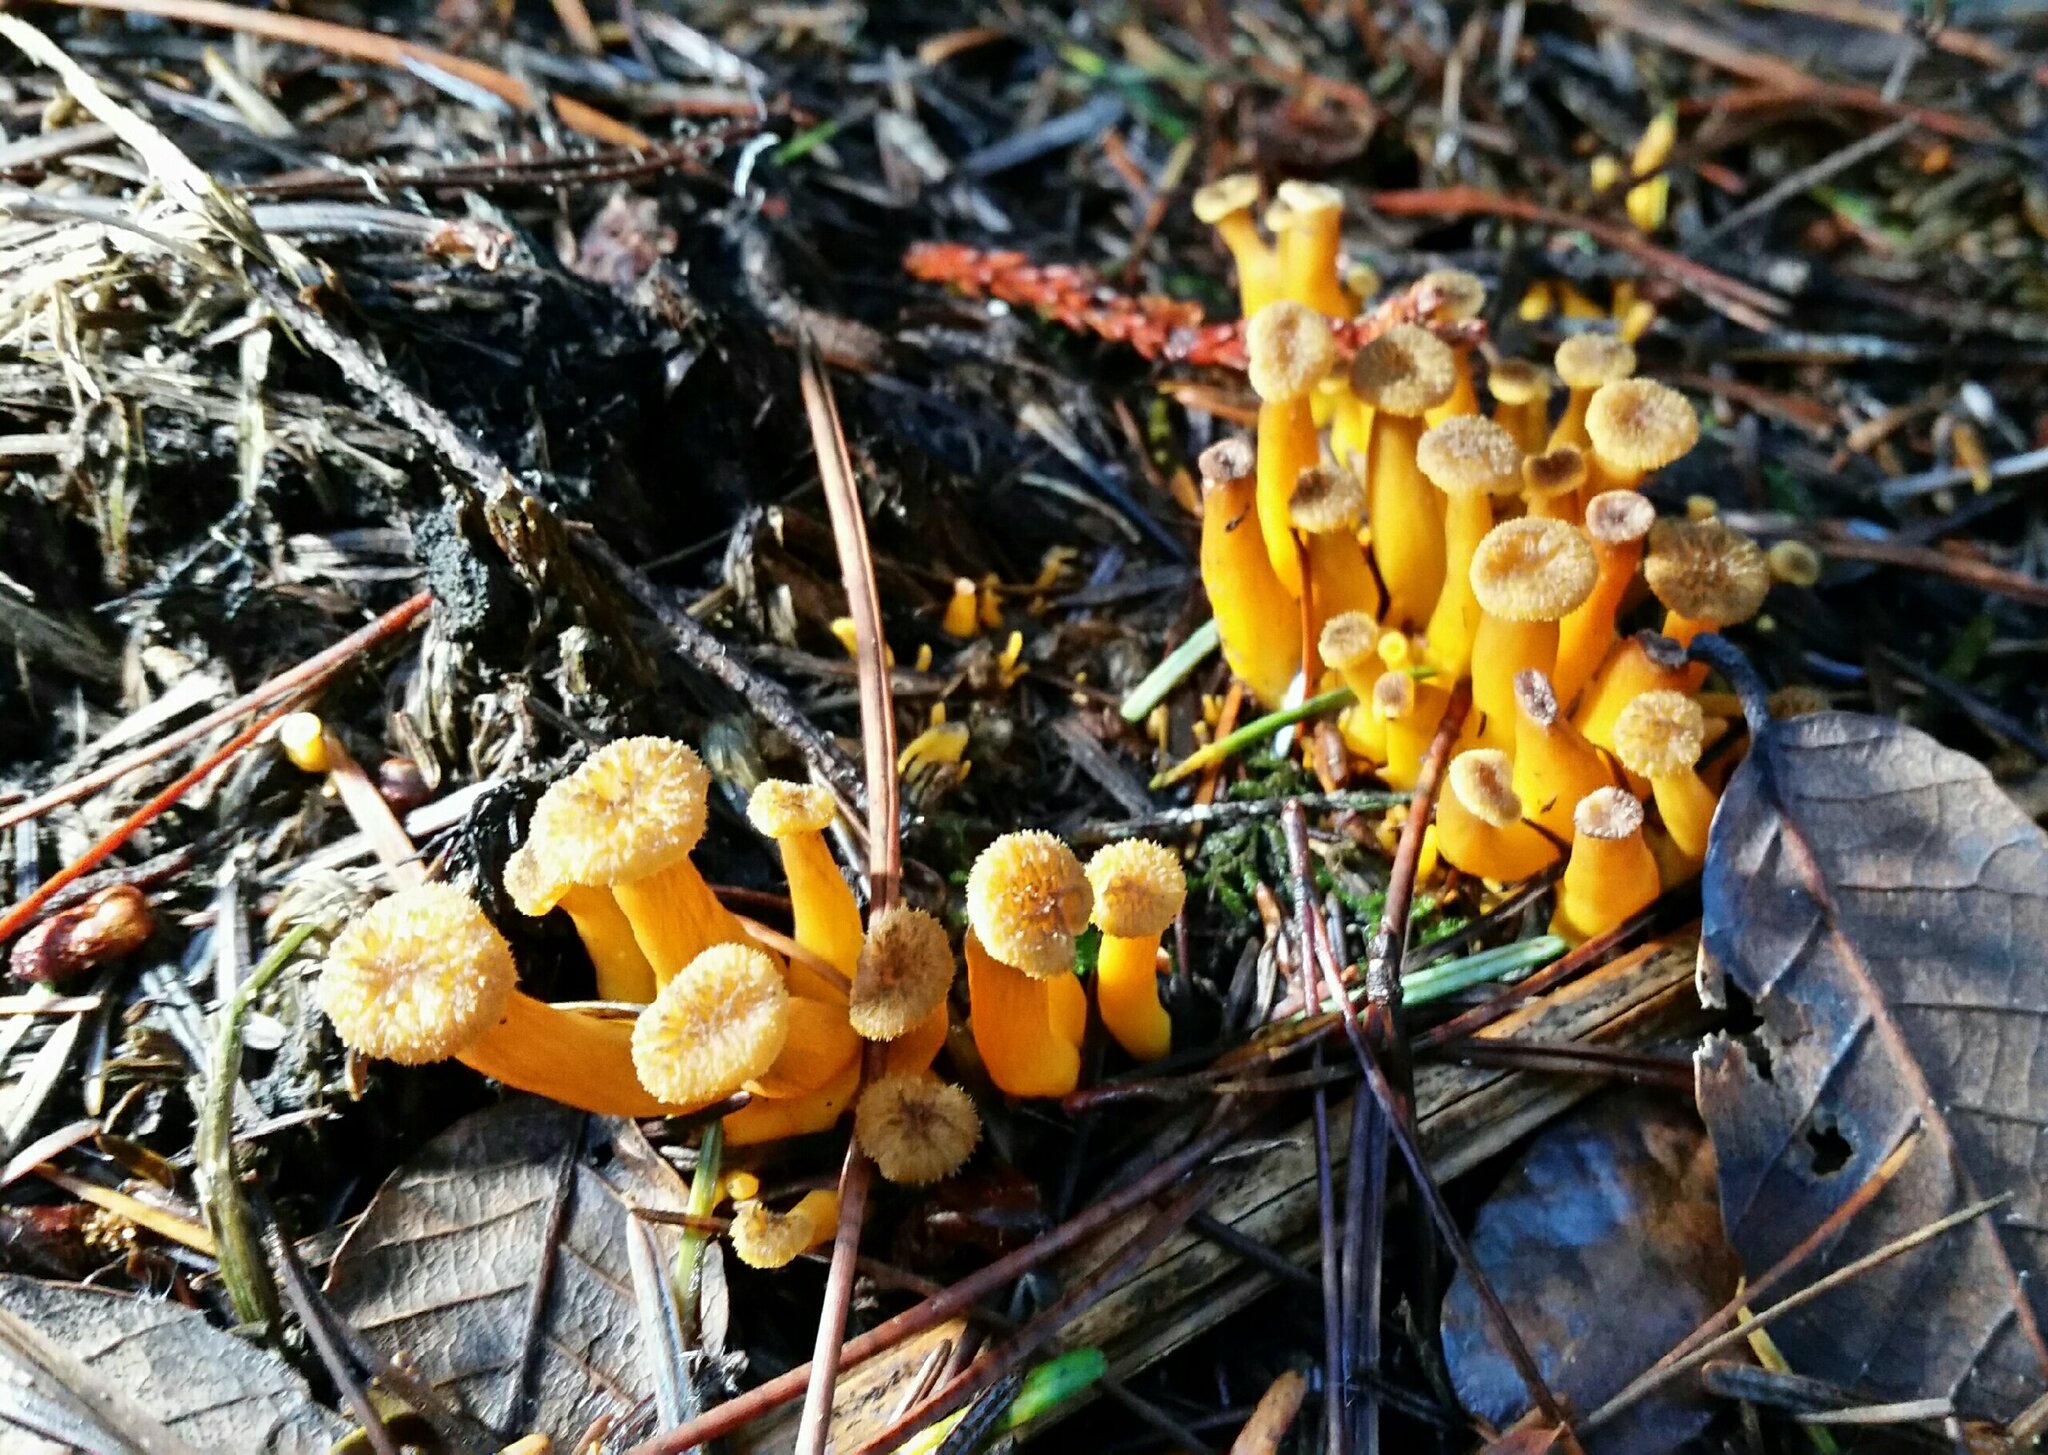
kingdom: Fungi
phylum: Basidiomycota
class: Agaricomycetes
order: Cantharellales
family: Hydnaceae
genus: Craterellus
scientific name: Craterellus tubaeformis
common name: Yellowfoot
